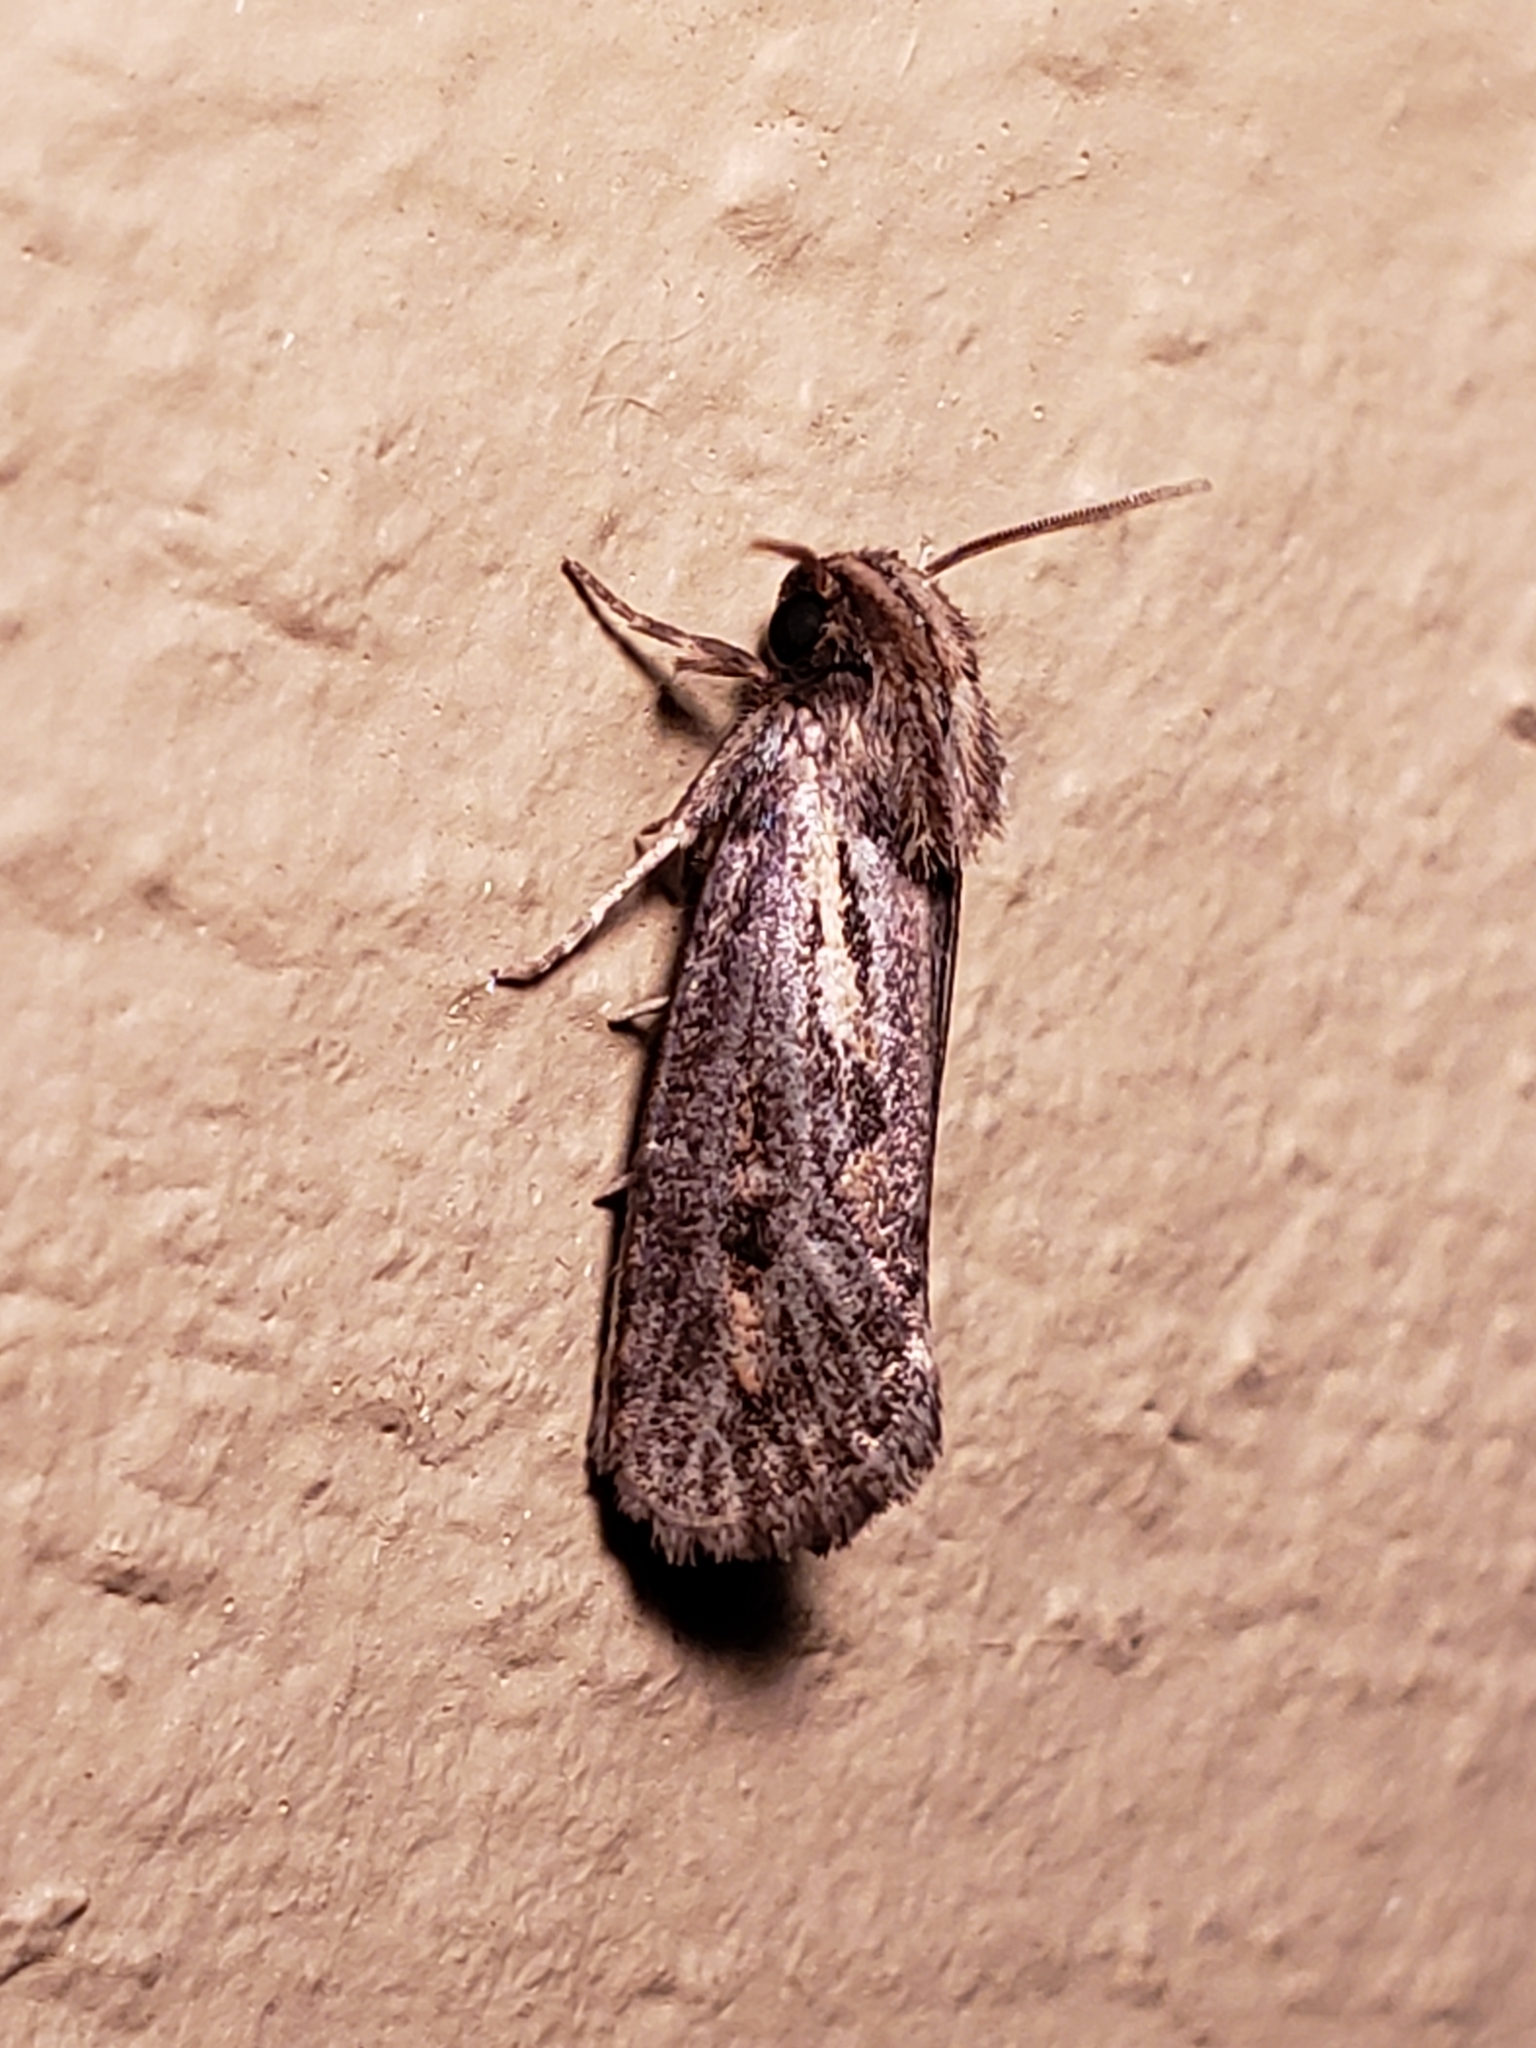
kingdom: Animalia
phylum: Arthropoda
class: Insecta
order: Lepidoptera
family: Tineidae
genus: Acrolophus
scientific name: Acrolophus popeanella
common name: Clemens' grass tubeworm moth
